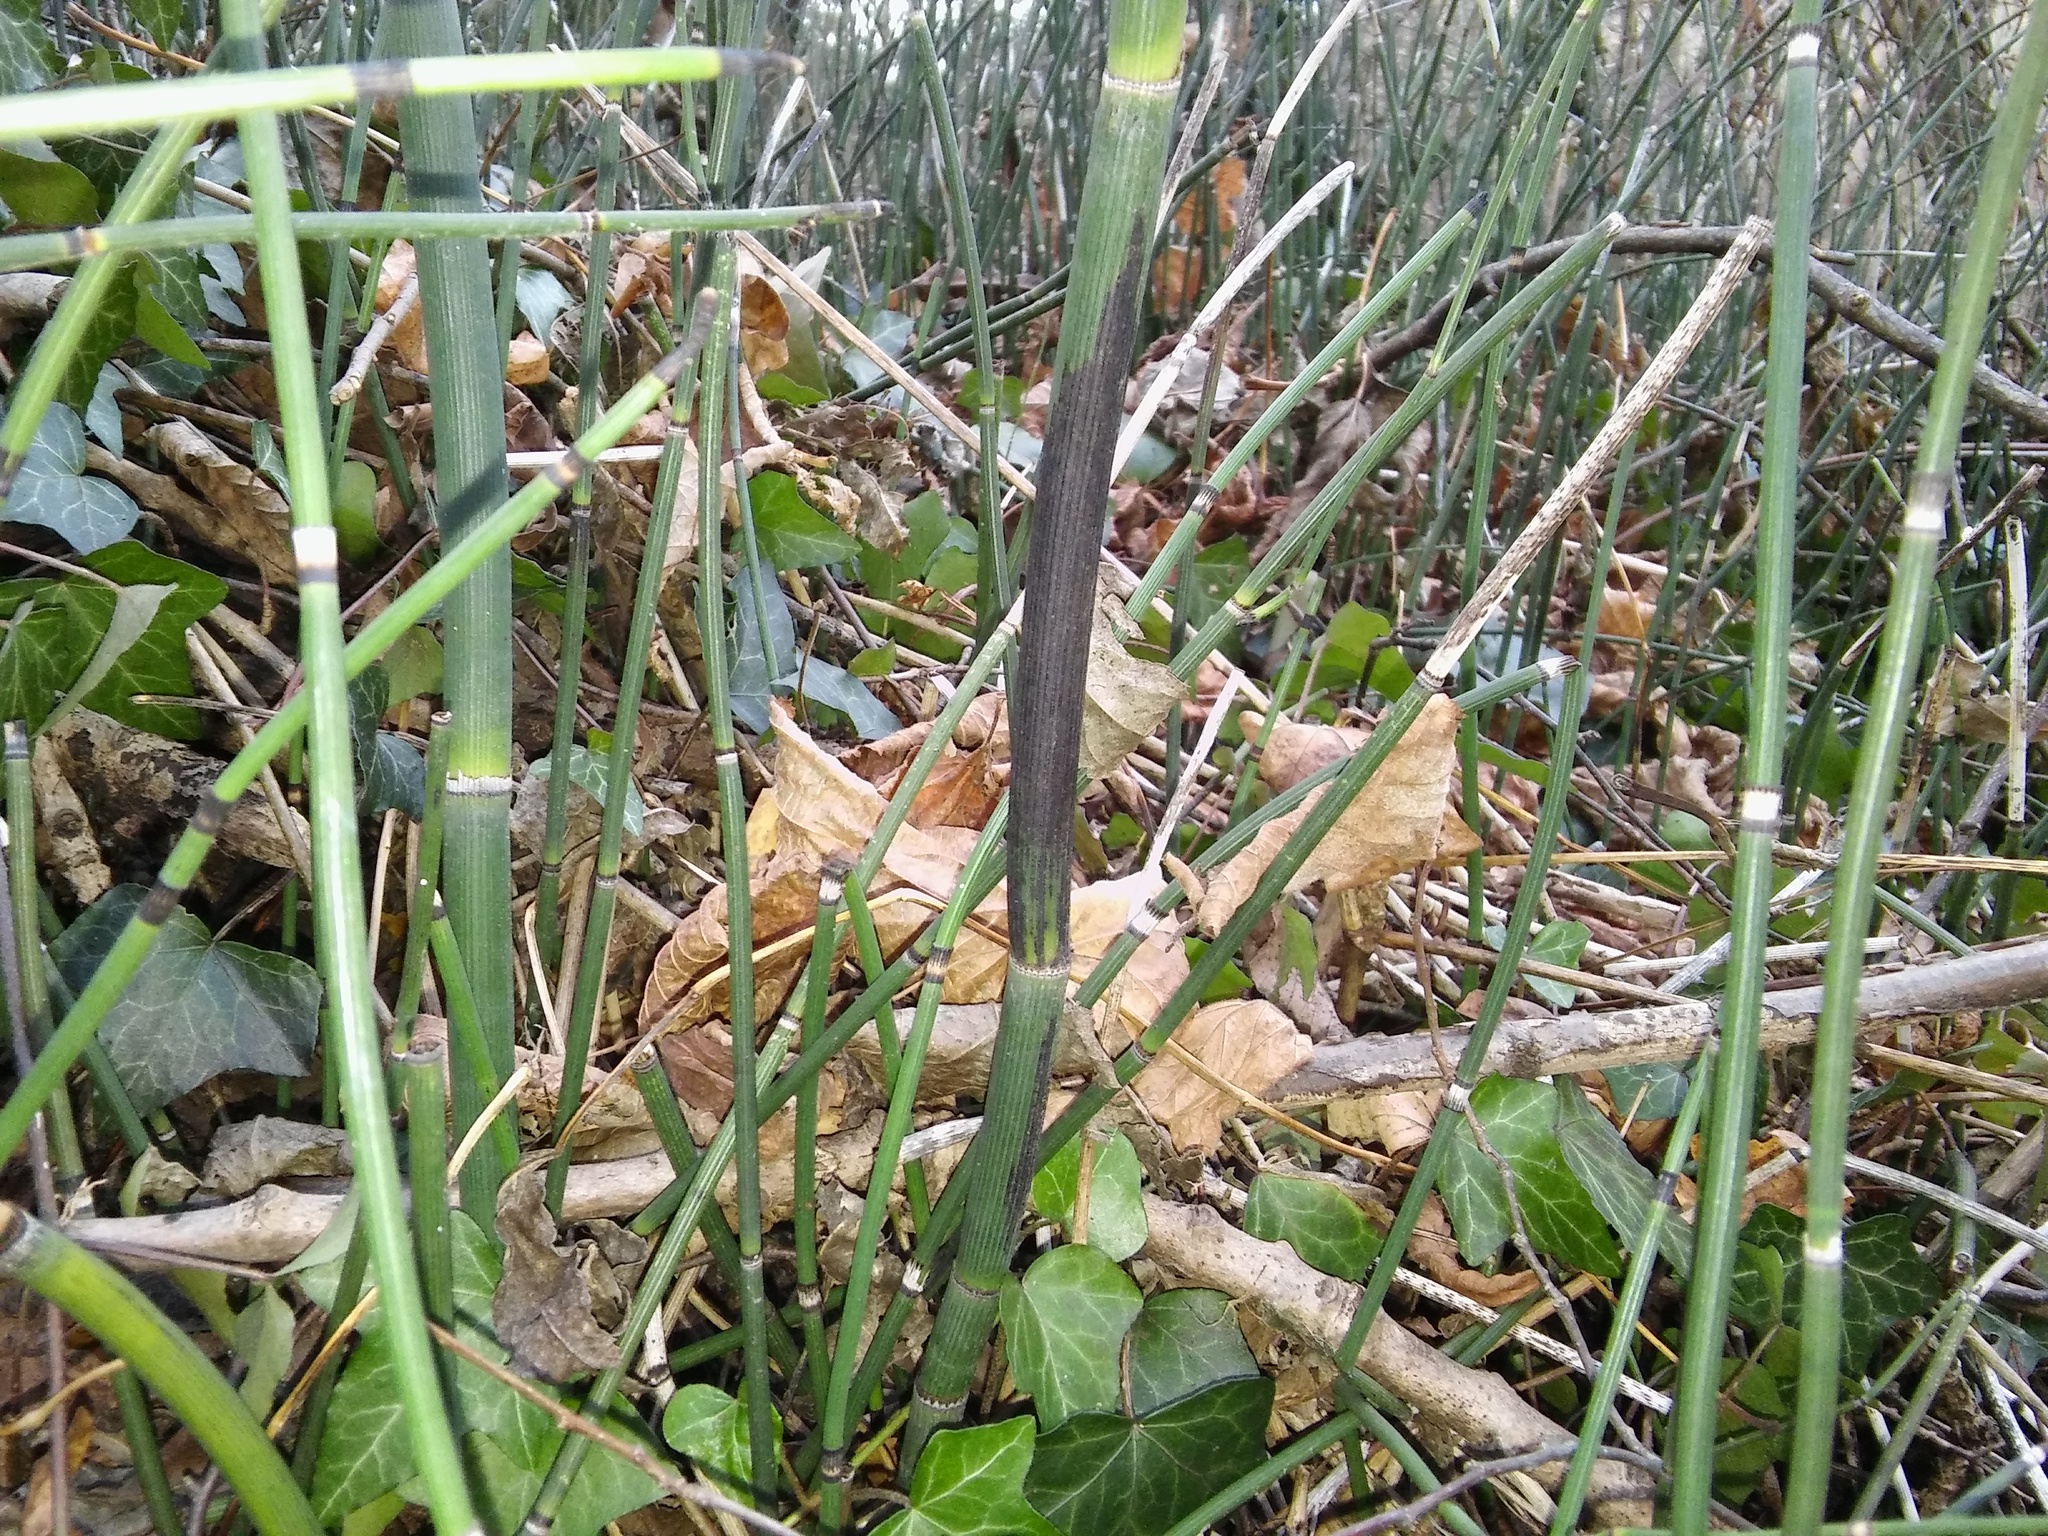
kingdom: Fungi
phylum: Ascomycota
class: Leotiomycetes
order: Helotiales
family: Helotiaceae
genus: Stamnaria
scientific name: Stamnaria americana
